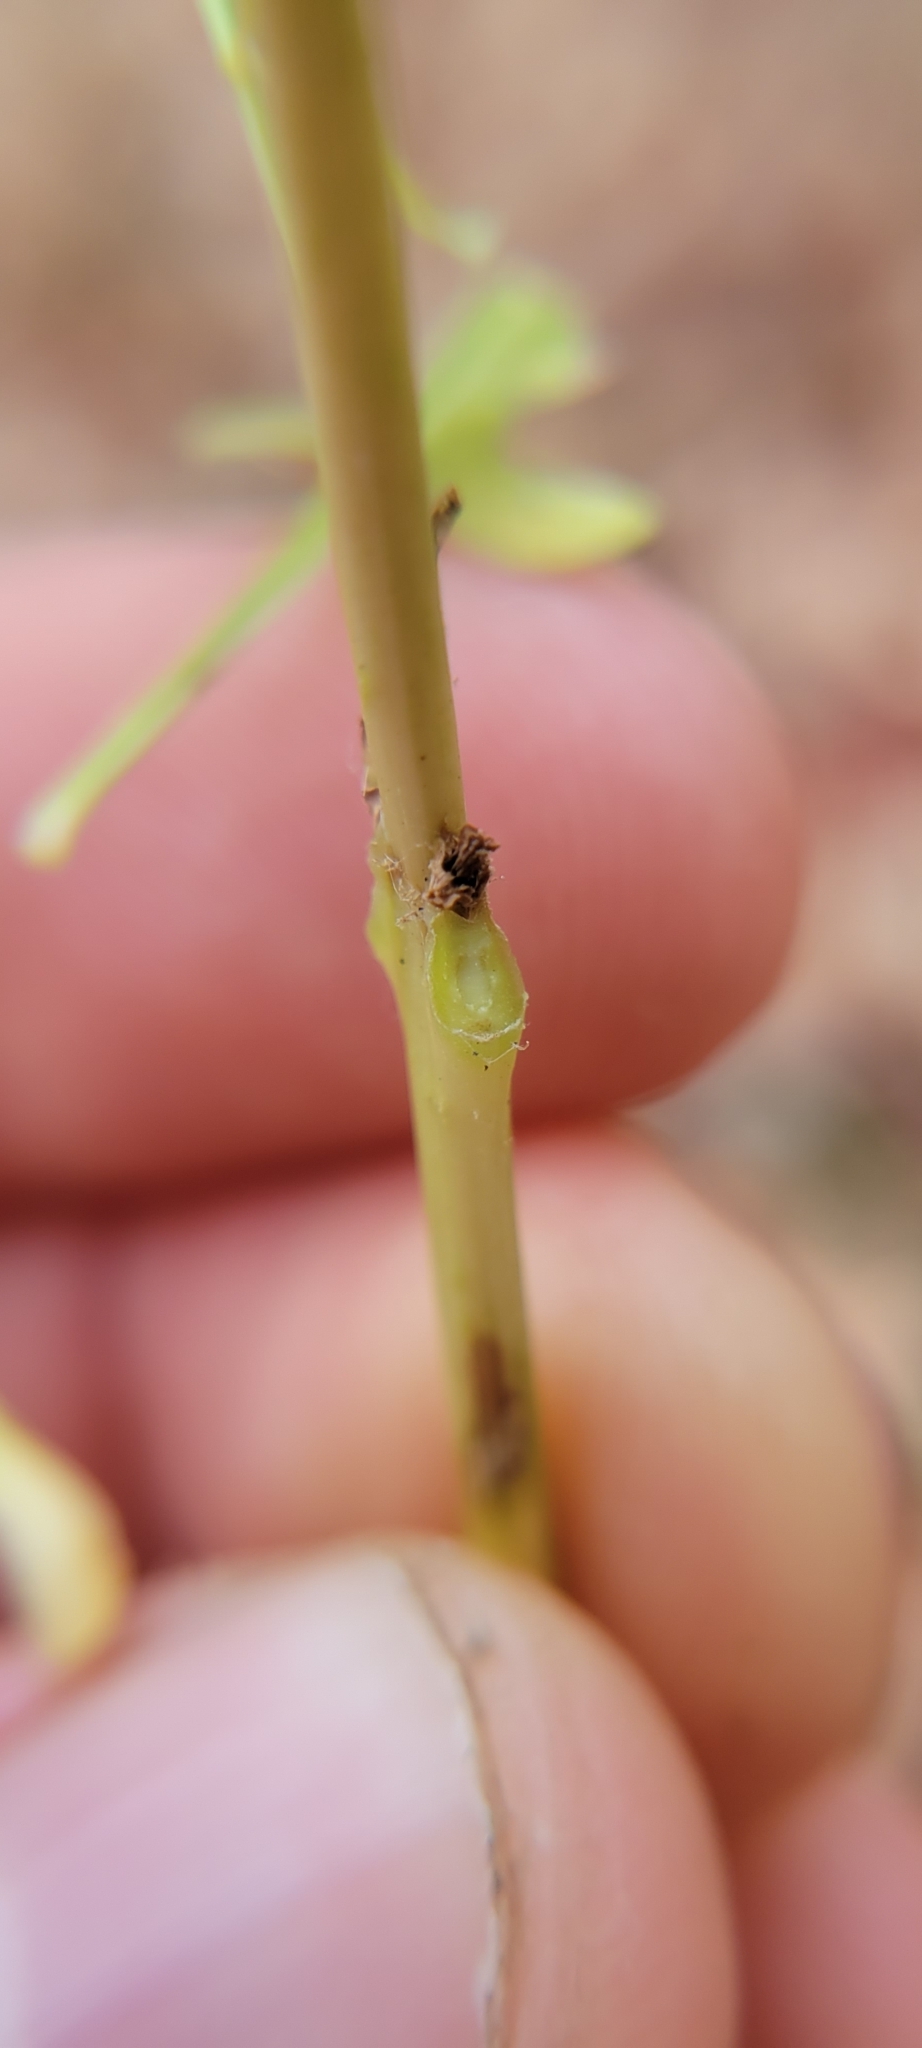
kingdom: Plantae
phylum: Tracheophyta
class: Magnoliopsida
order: Lamiales
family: Bignoniaceae
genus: Campsis
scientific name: Campsis radicans
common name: Trumpet-creeper
